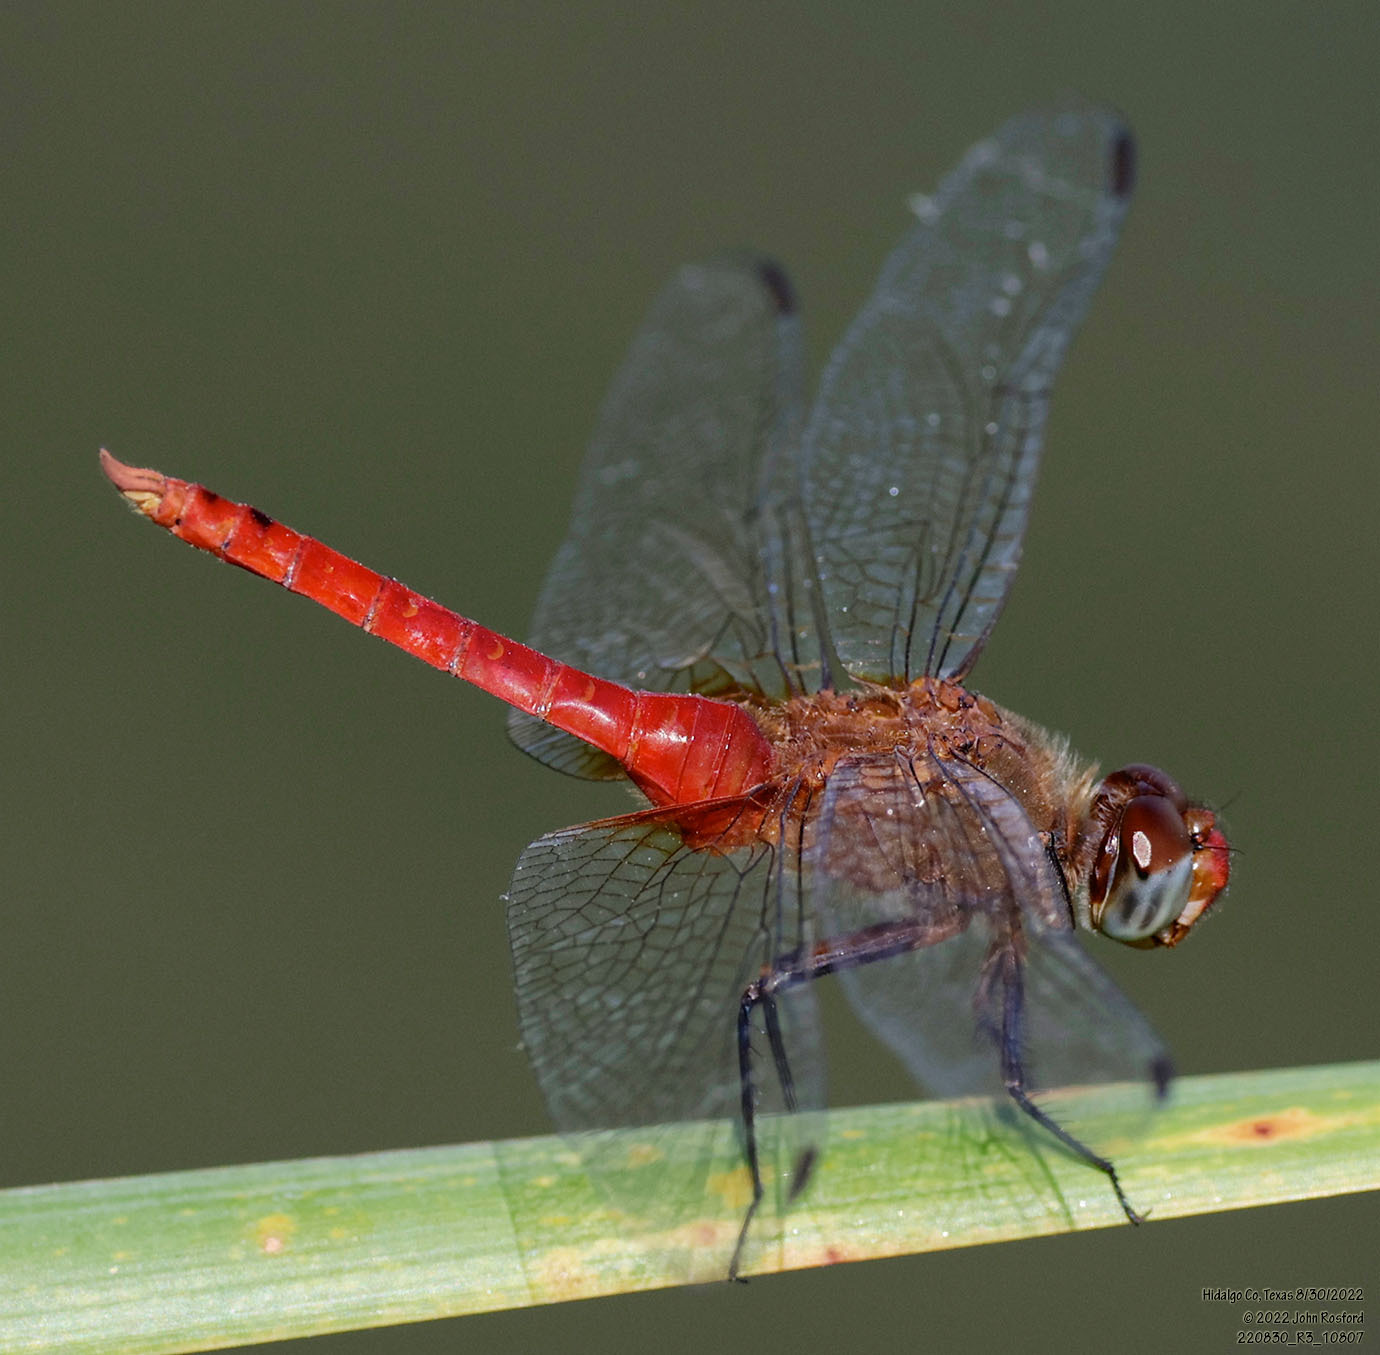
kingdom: Animalia
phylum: Arthropoda
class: Insecta
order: Odonata
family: Libellulidae
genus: Brachymesia
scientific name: Brachymesia furcata
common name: Red-taled pennant
